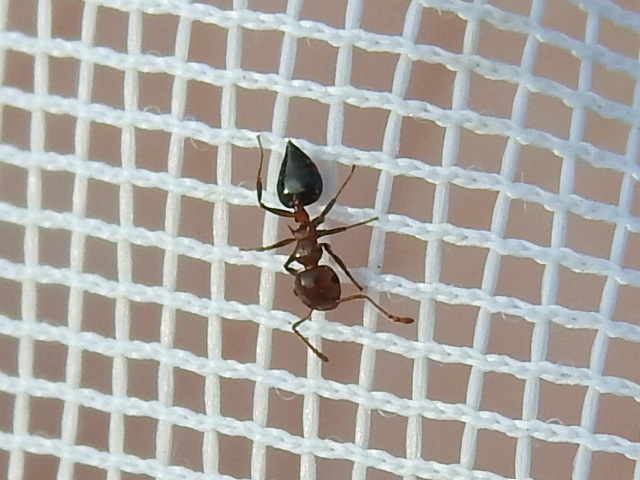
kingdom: Animalia
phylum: Arthropoda
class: Insecta
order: Hymenoptera
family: Formicidae
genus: Crematogaster
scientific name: Crematogaster laeviuscula
